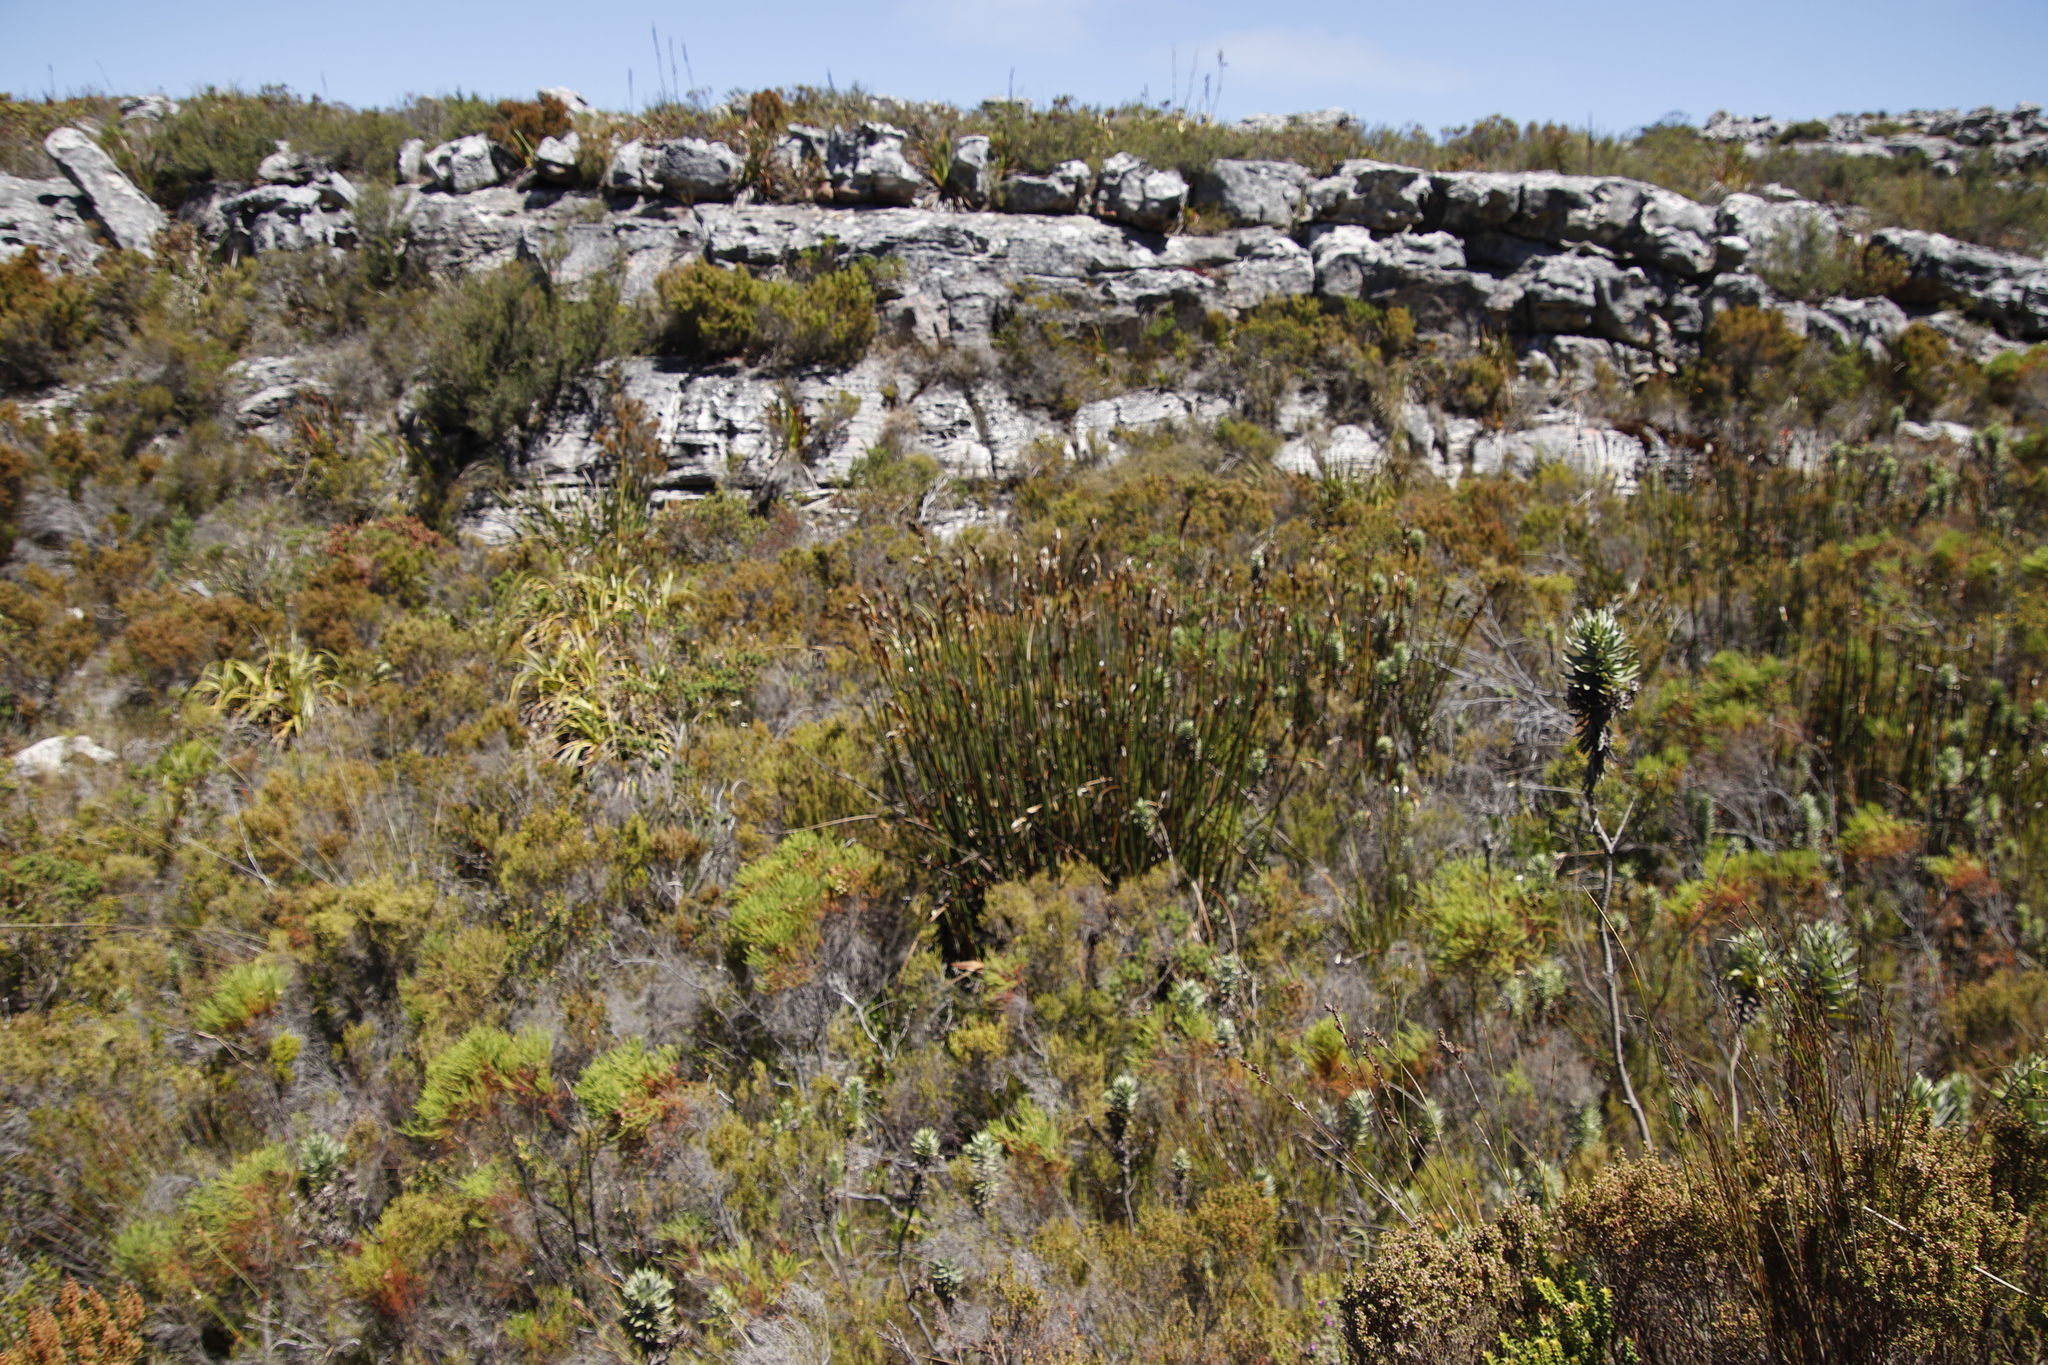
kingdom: Plantae
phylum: Tracheophyta
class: Liliopsida
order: Poales
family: Restionaceae
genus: Elegia
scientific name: Elegia mucronata
